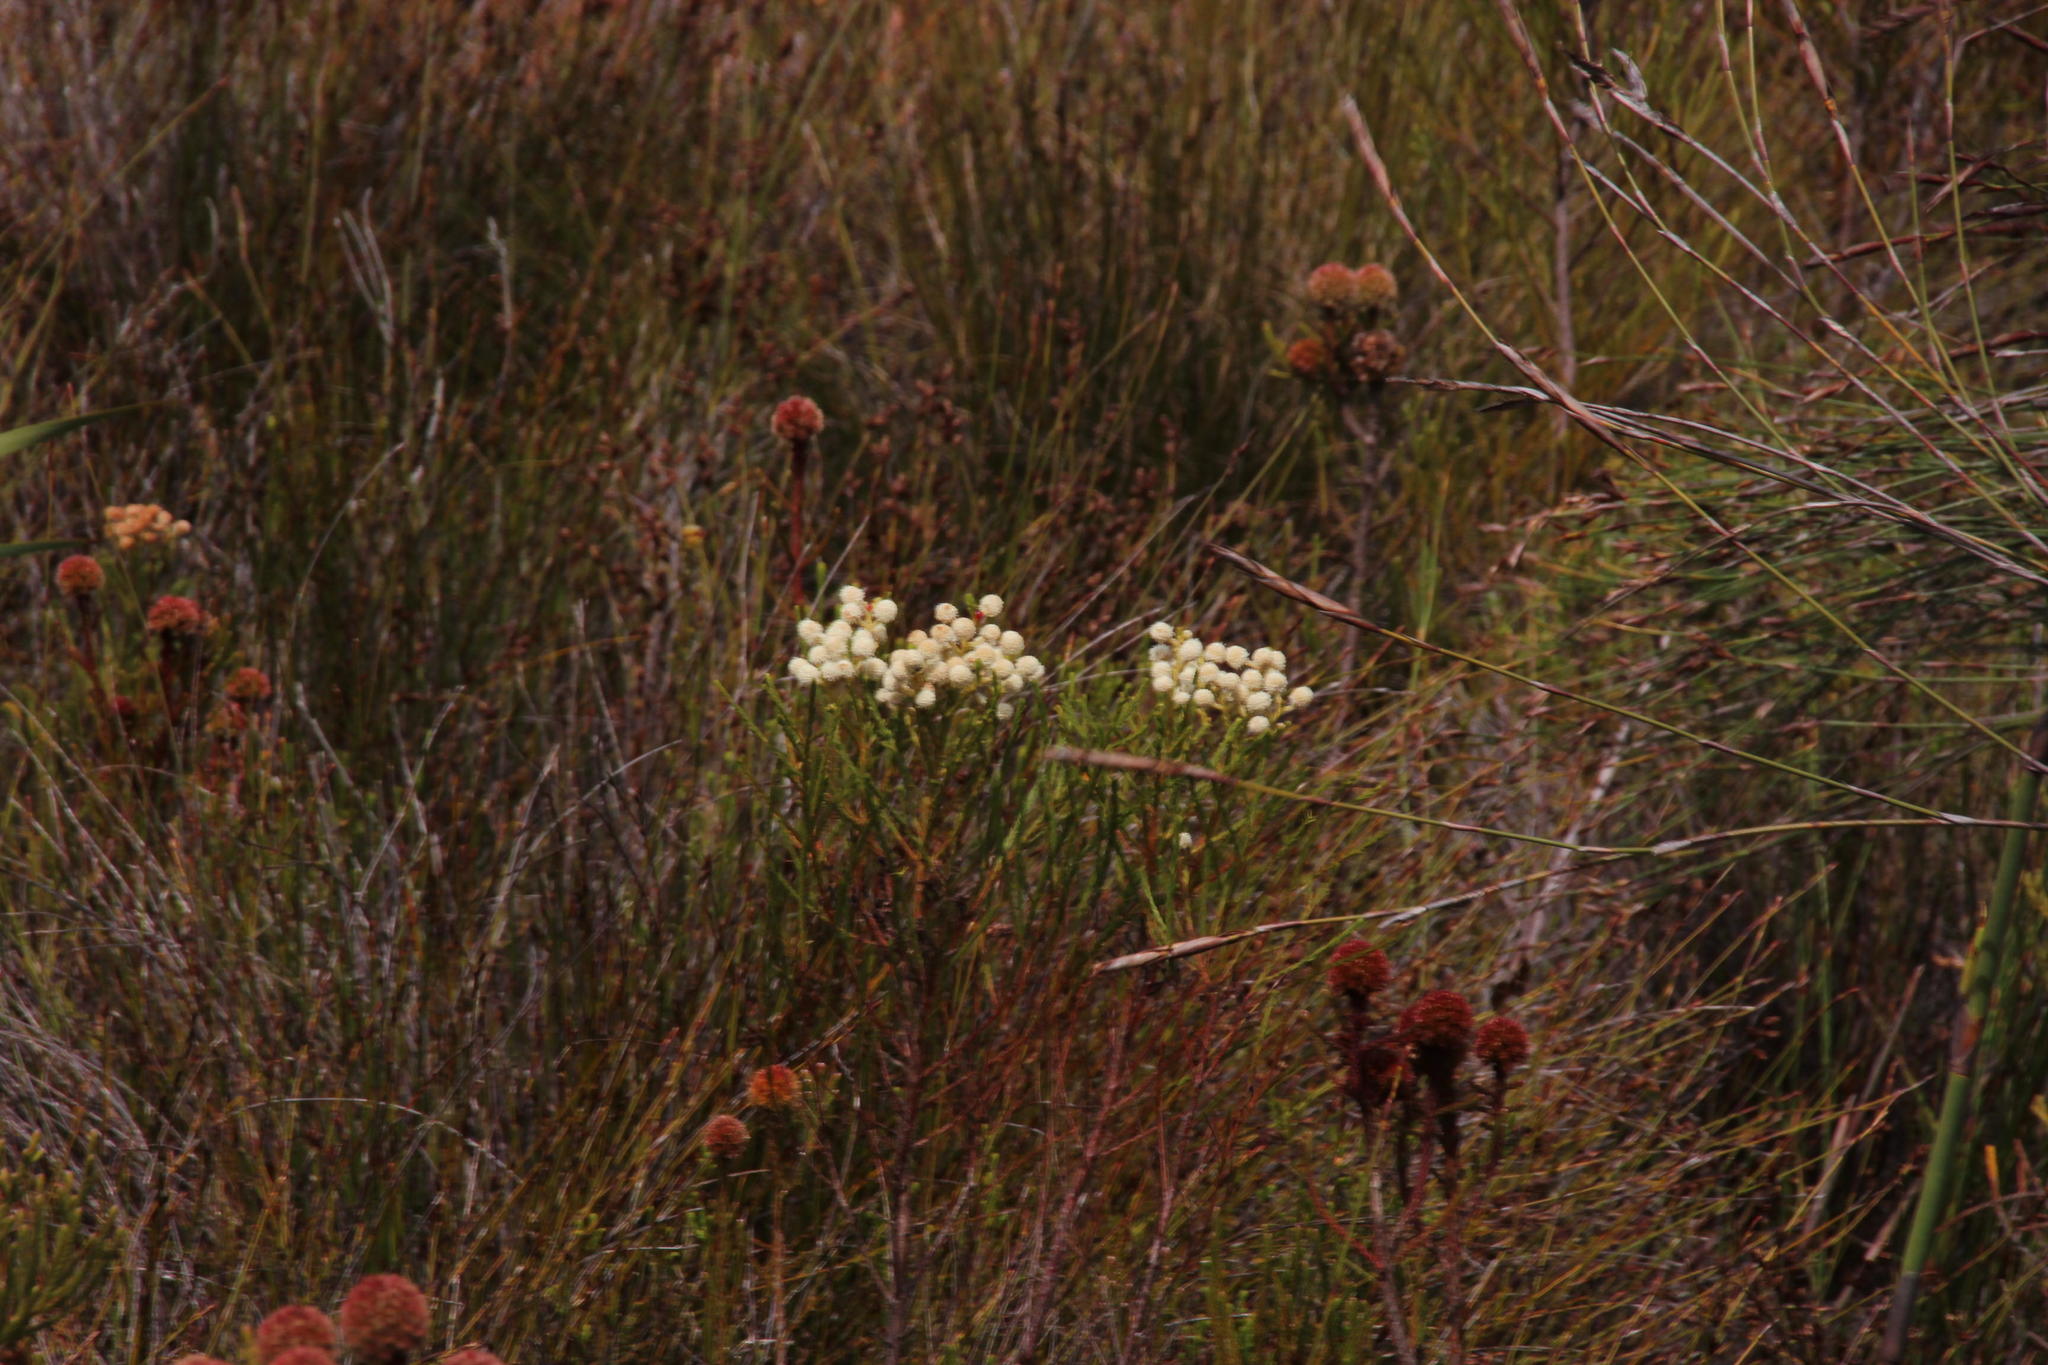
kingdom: Plantae
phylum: Tracheophyta
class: Magnoliopsida
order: Bruniales
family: Bruniaceae
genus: Brunia
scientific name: Brunia fragarioides
